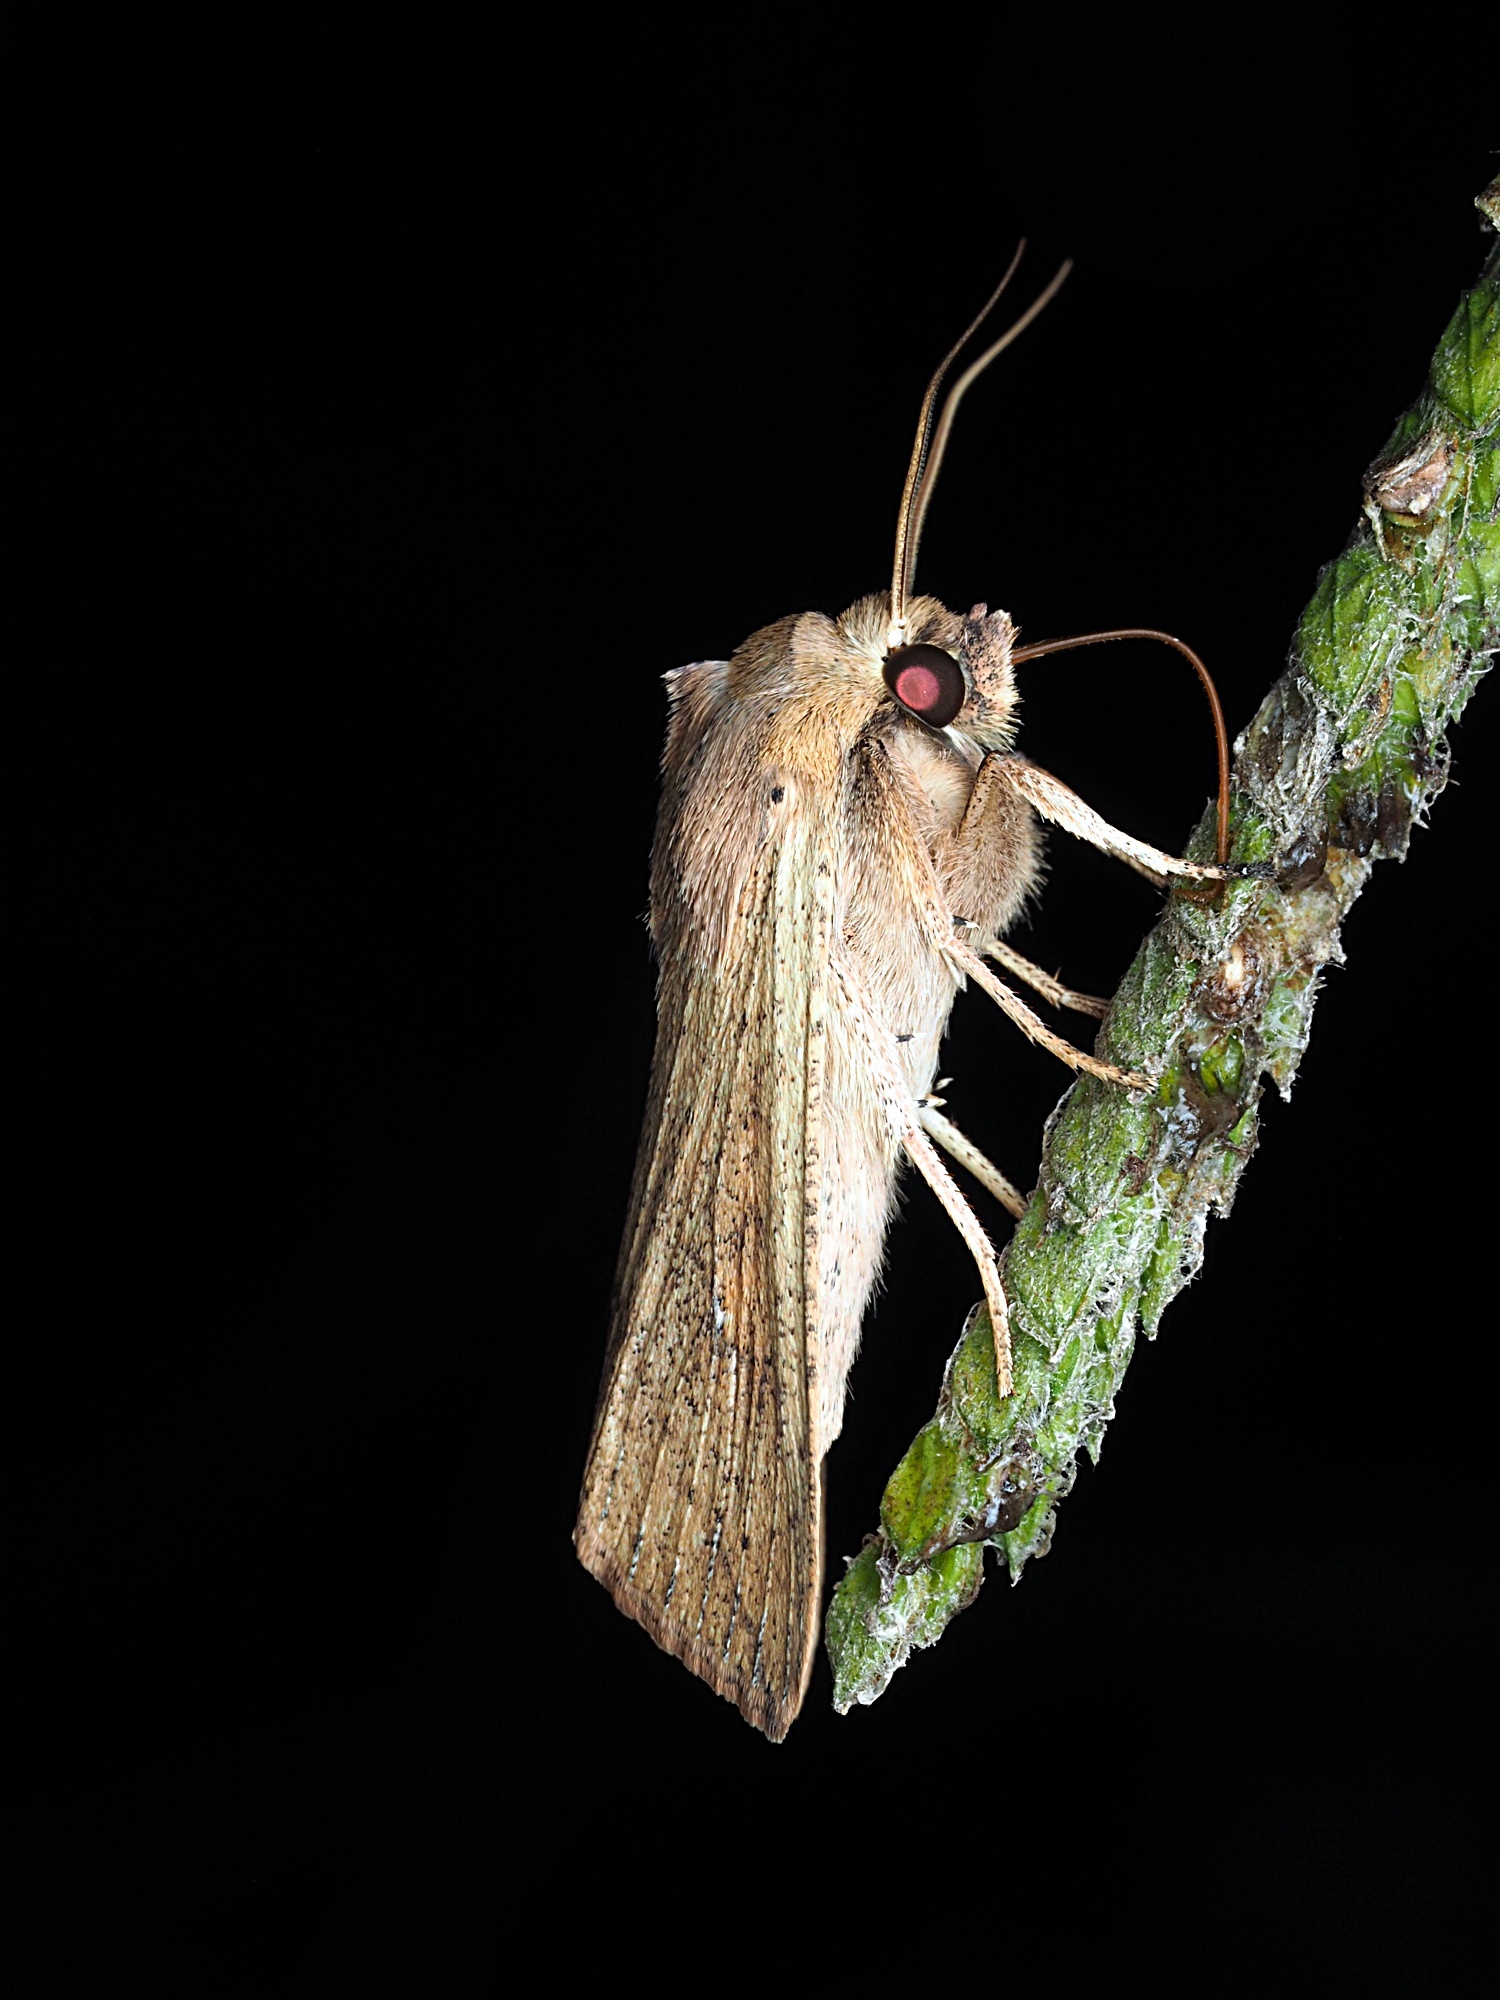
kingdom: Animalia
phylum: Arthropoda
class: Insecta
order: Lepidoptera
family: Noctuidae
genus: Mythimna
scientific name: Mythimna separata
